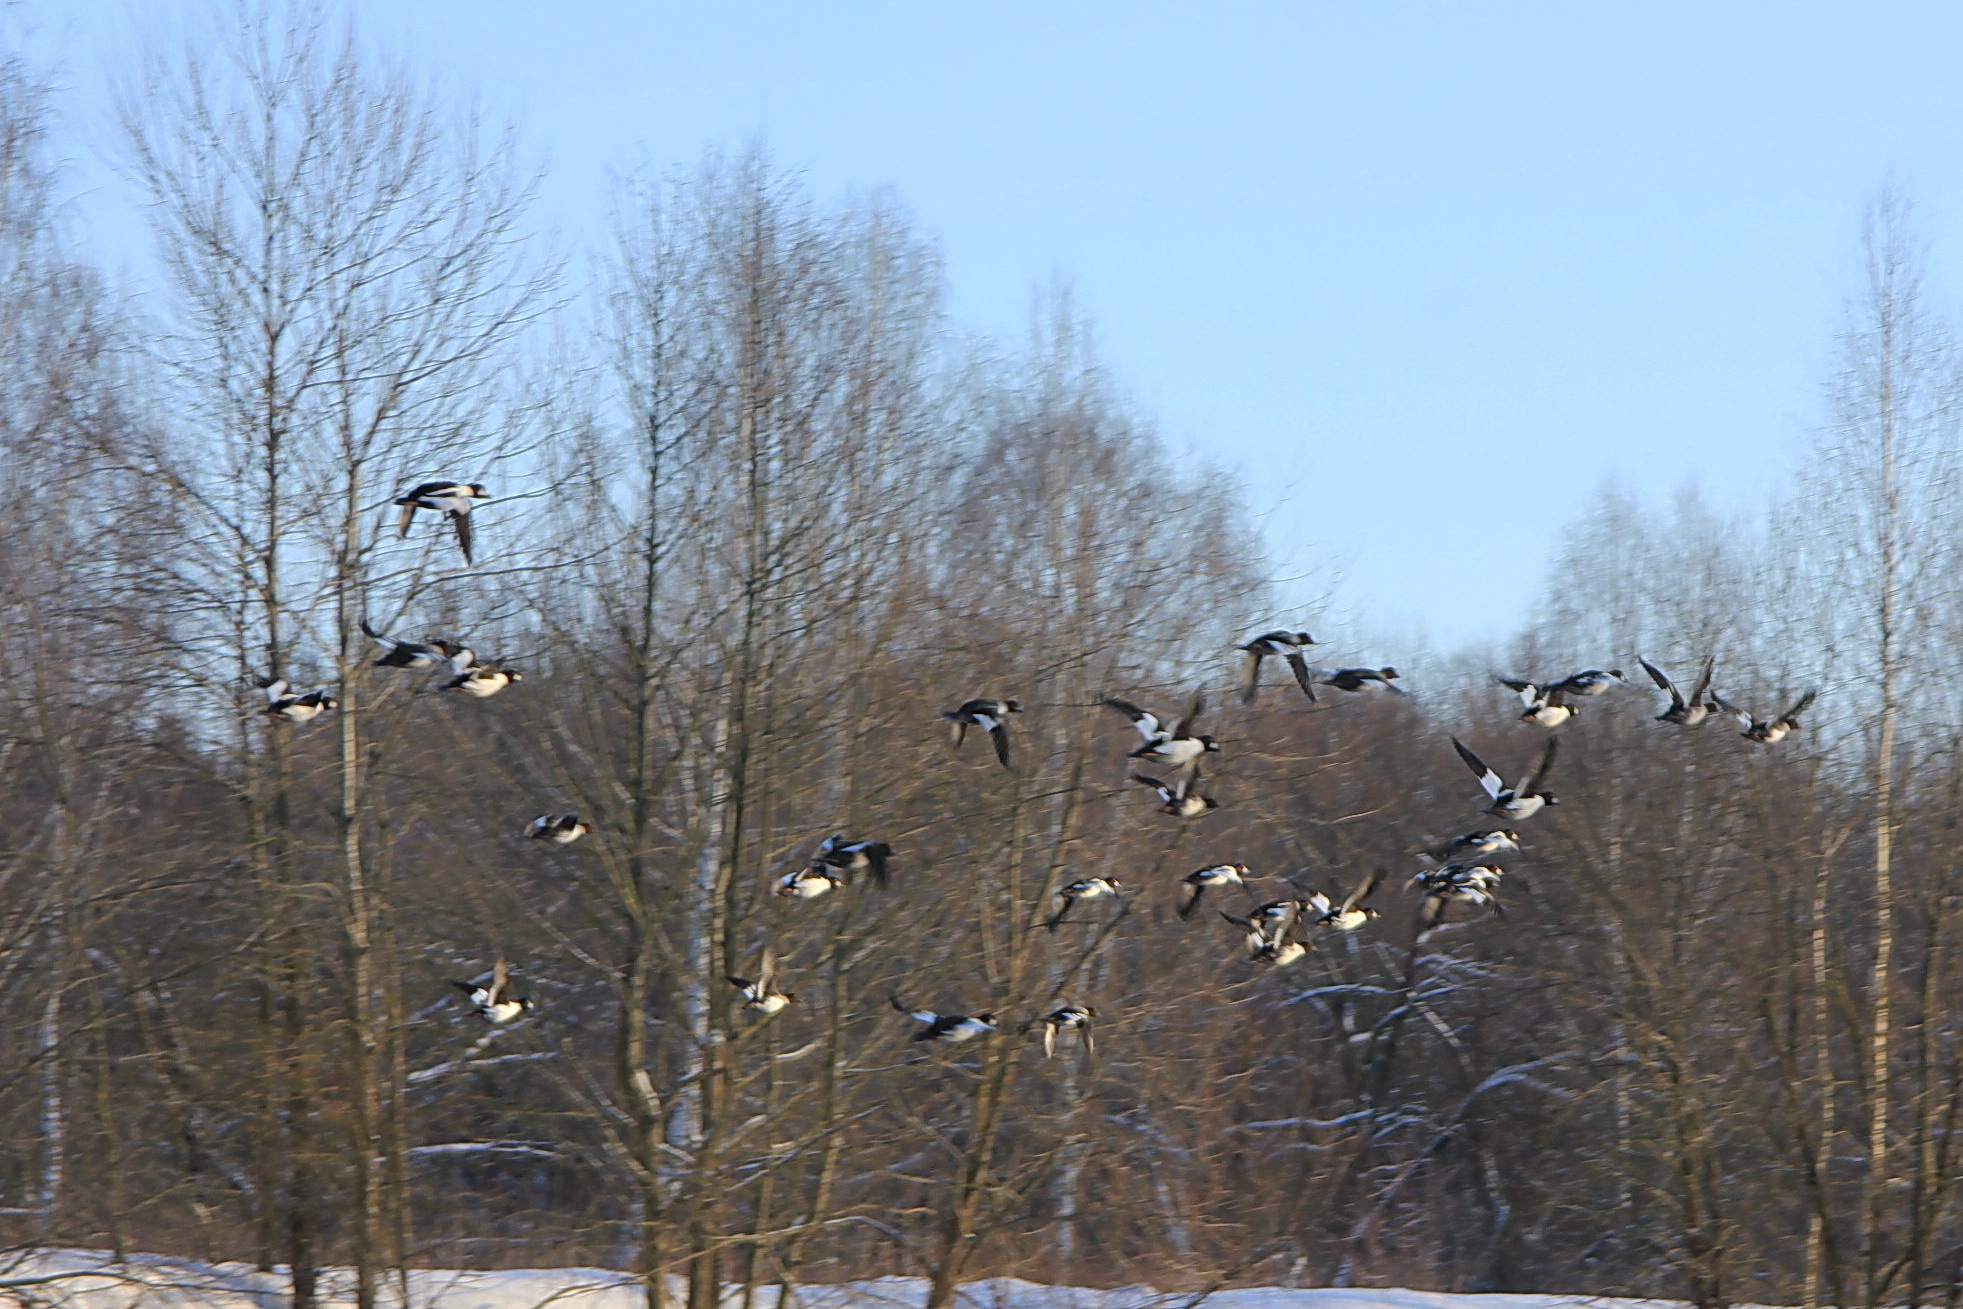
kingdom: Animalia
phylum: Chordata
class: Aves
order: Anseriformes
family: Anatidae
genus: Bucephala
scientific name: Bucephala clangula
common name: Common goldeneye
